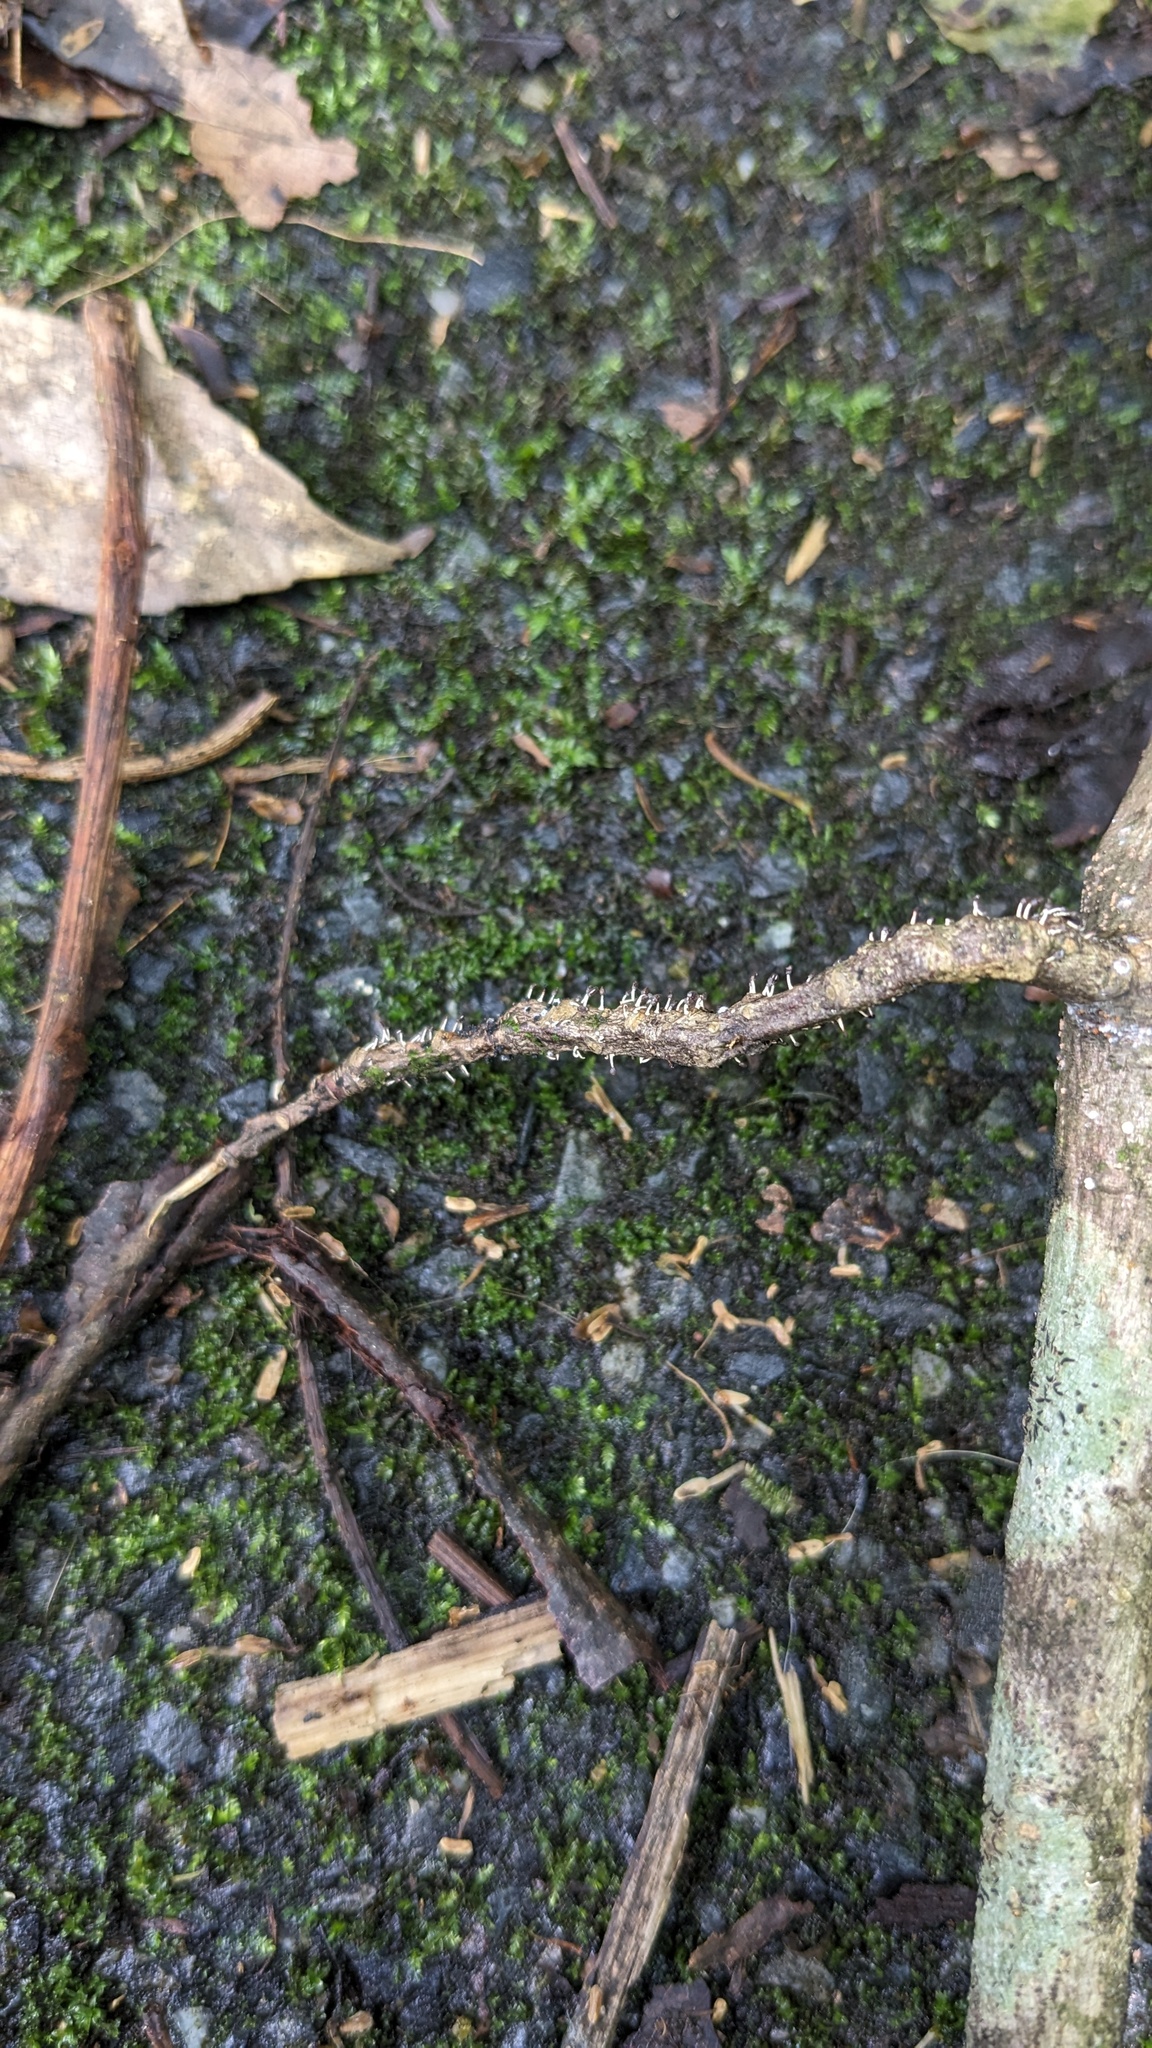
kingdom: Protozoa
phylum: Mycetozoa
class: Myxomycetes
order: Physarales
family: Didymiaceae
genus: Diachea
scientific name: Diachea leucopodia
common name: White-footed slime
